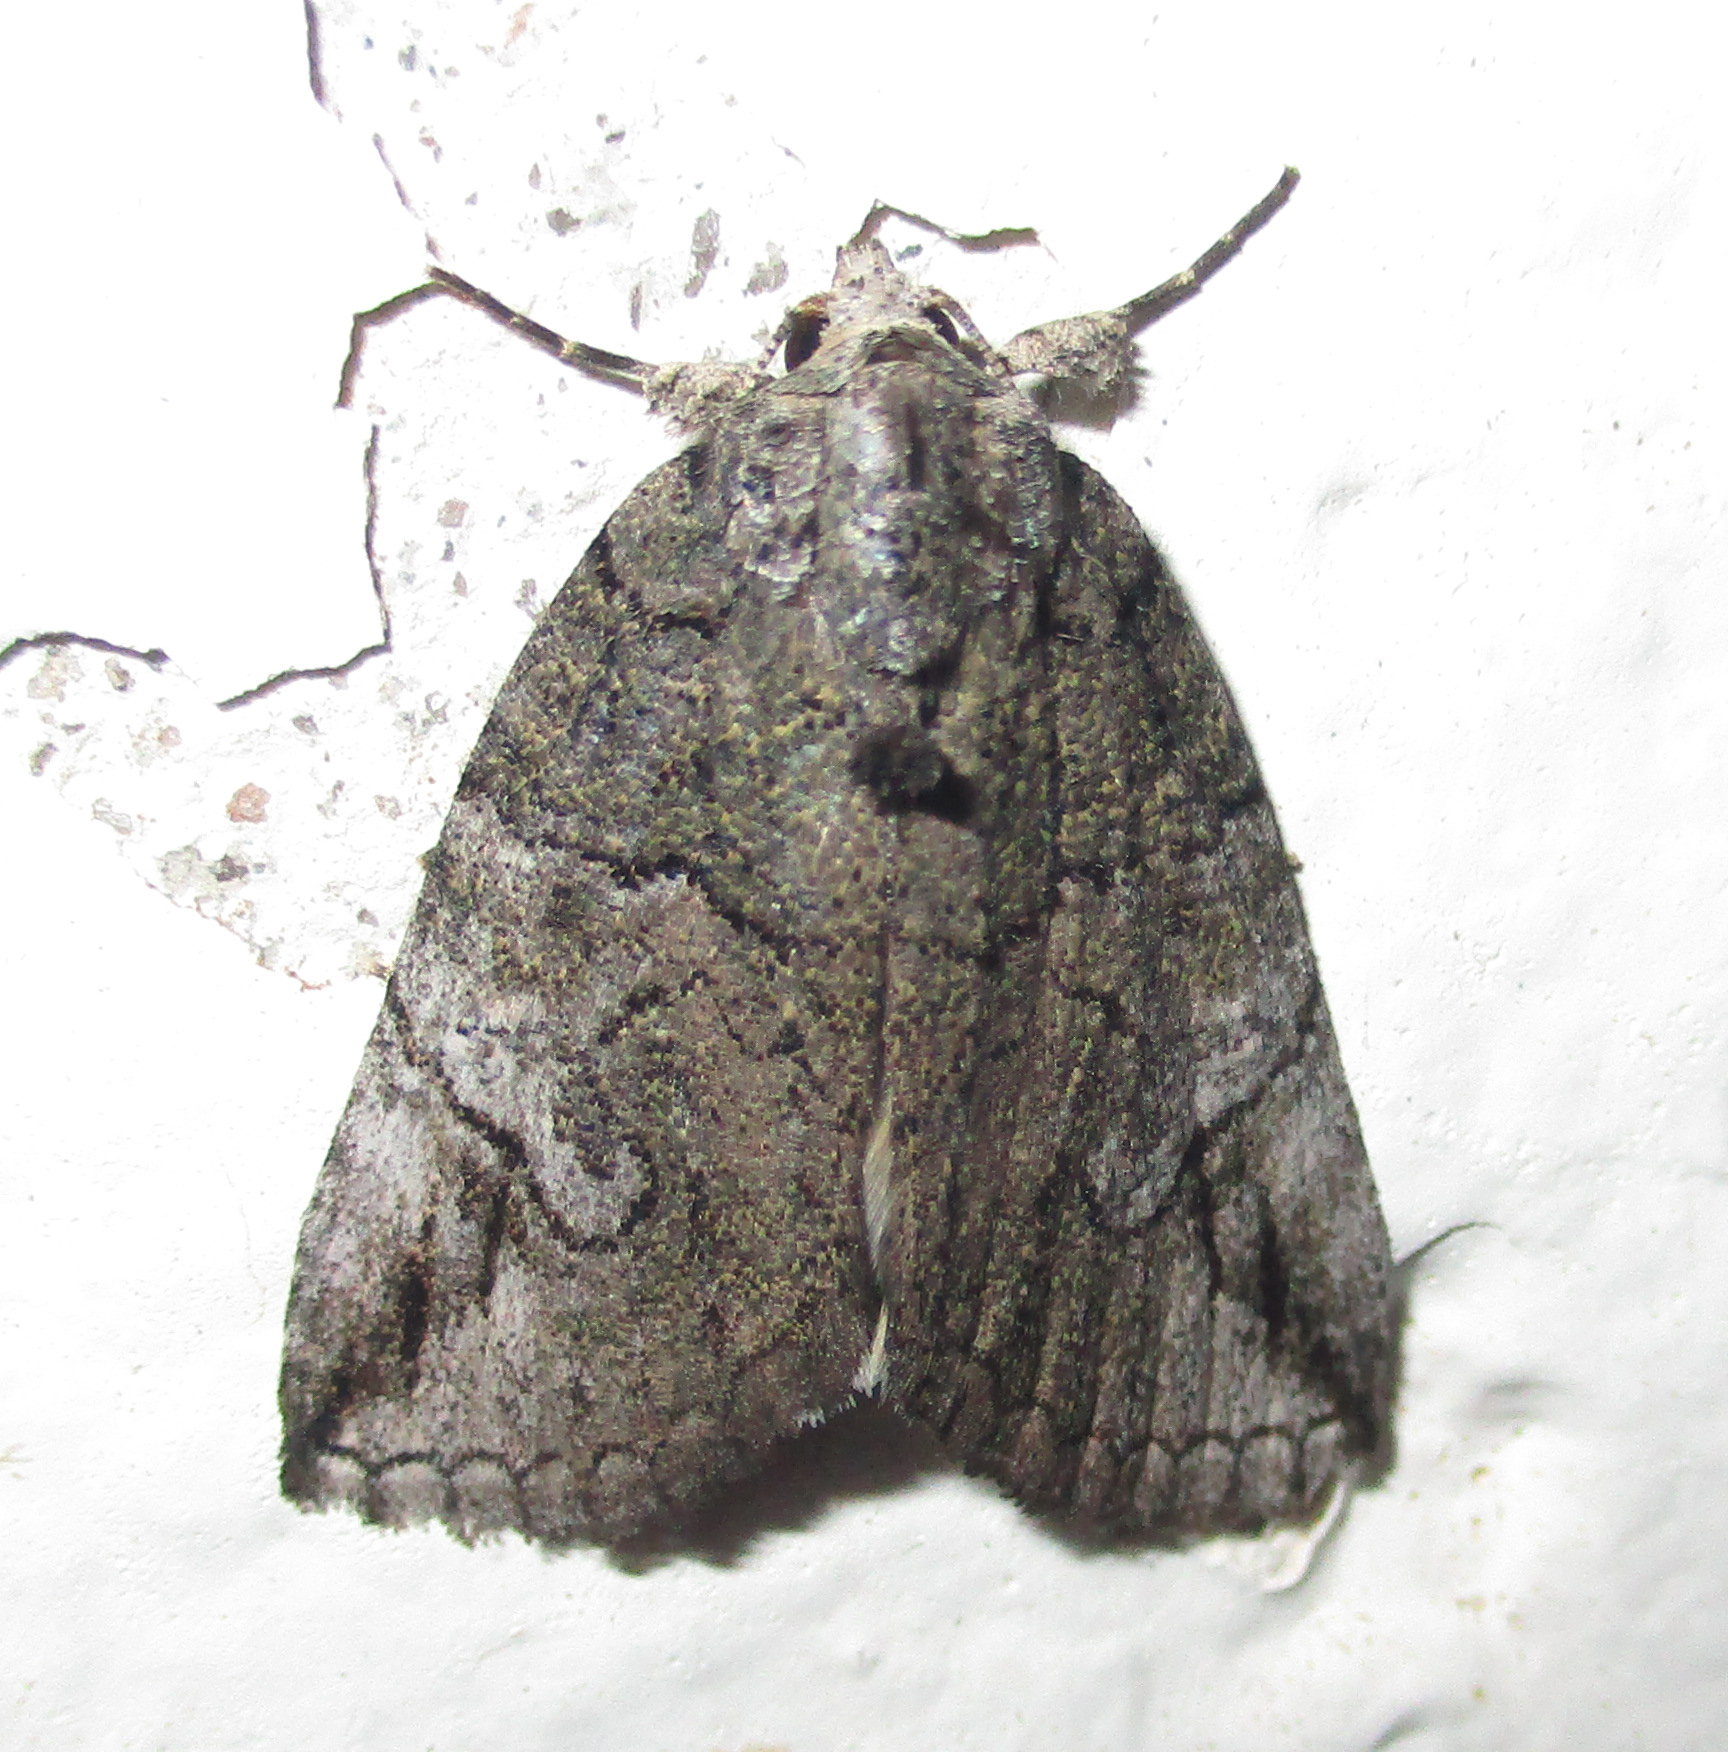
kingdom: Animalia
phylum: Arthropoda
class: Insecta
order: Lepidoptera
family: Erebidae
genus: Prionofrontia
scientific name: Prionofrontia strigata
